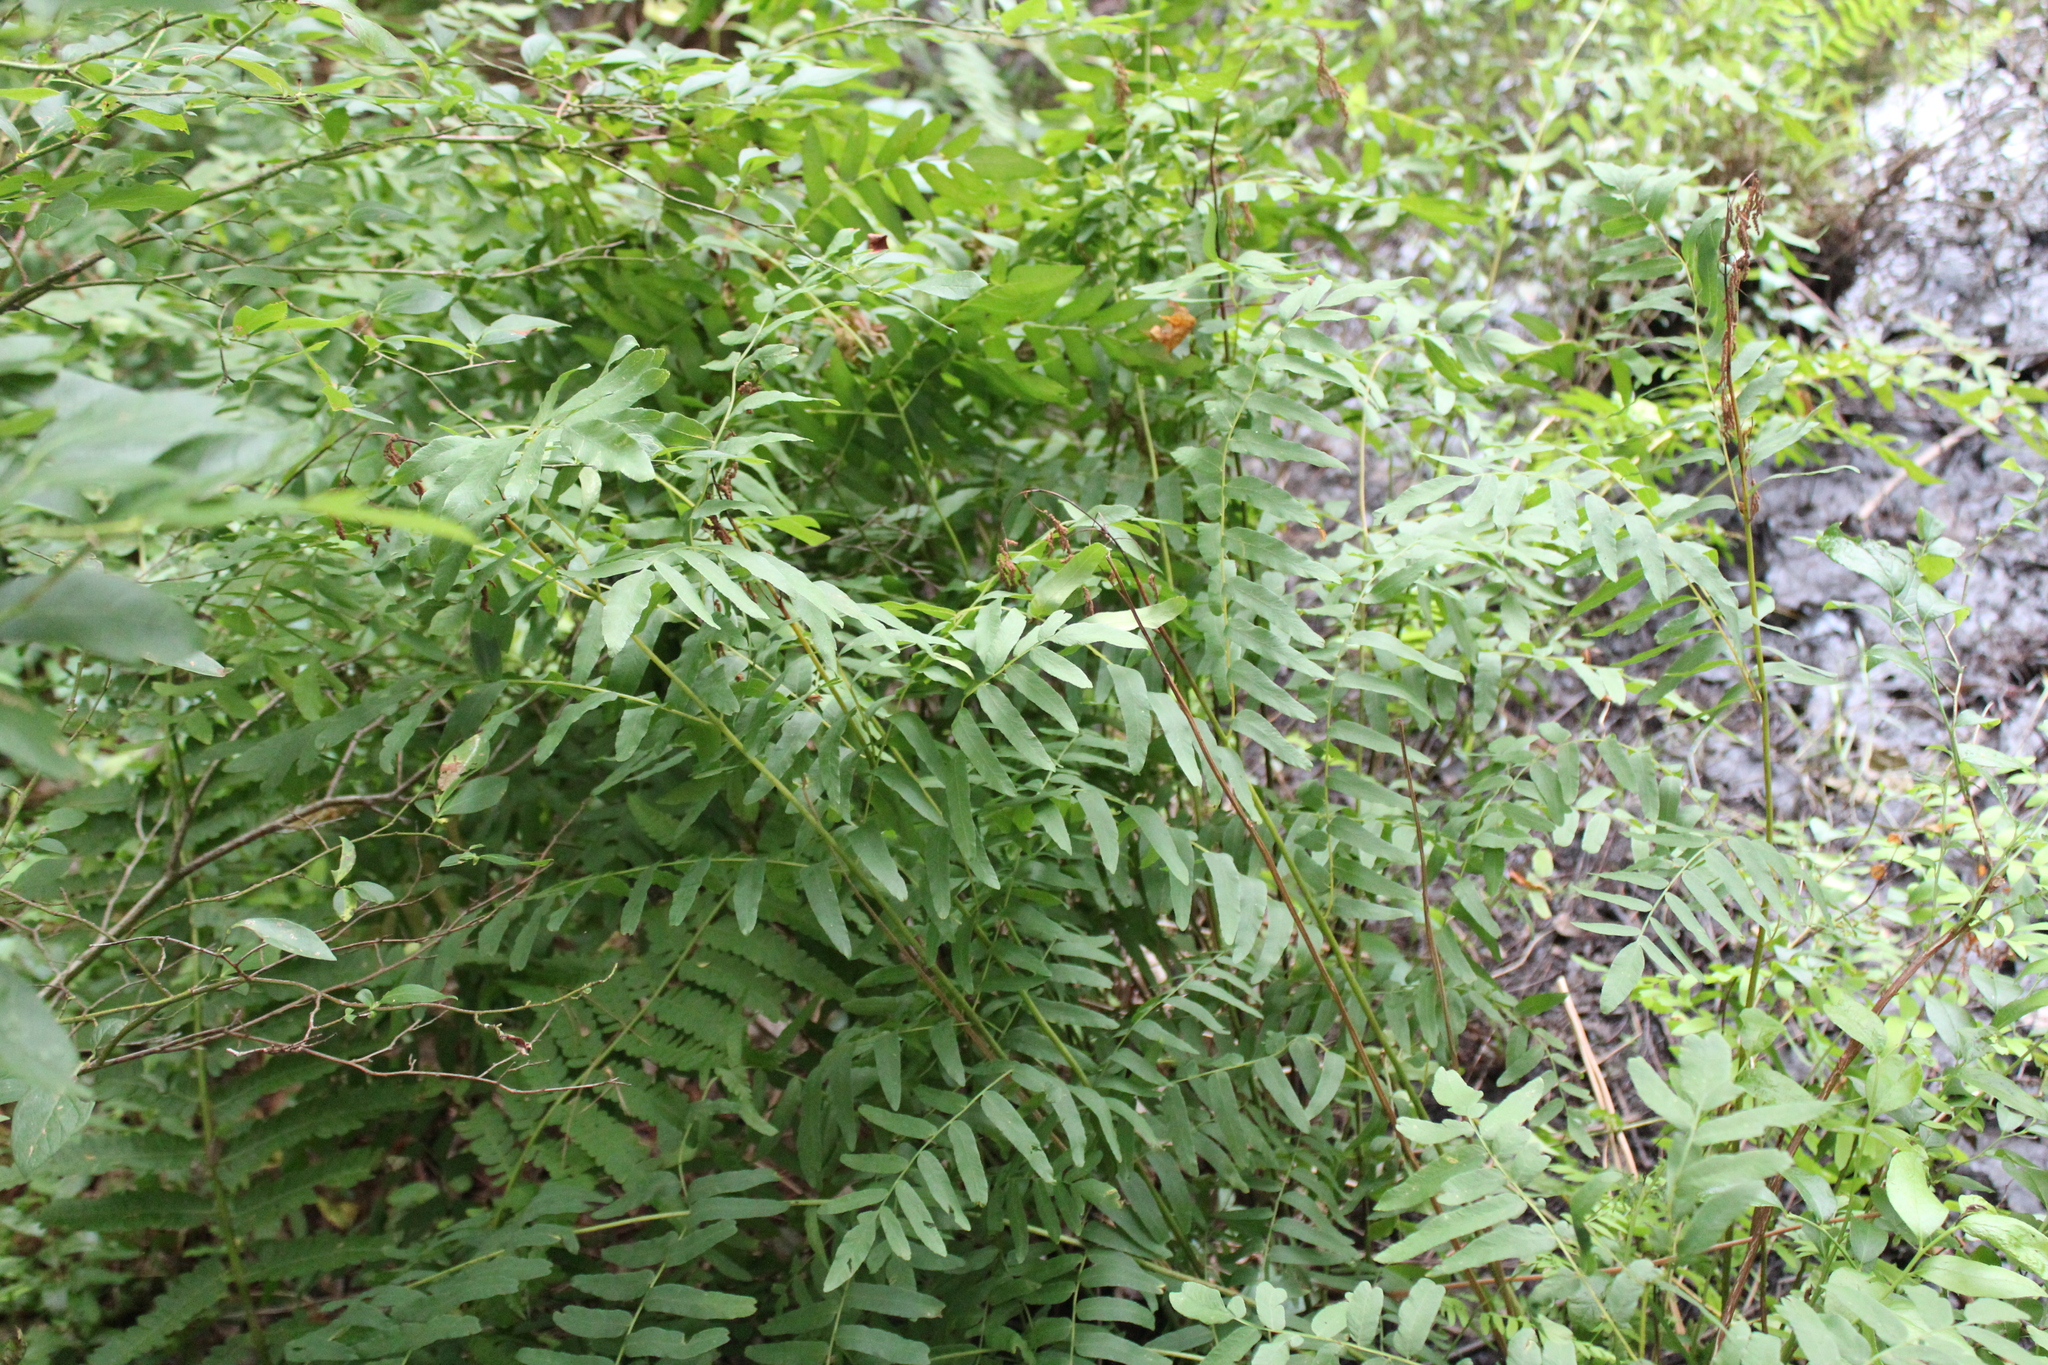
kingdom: Plantae
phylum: Tracheophyta
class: Polypodiopsida
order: Osmundales
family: Osmundaceae
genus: Osmunda
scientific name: Osmunda spectabilis
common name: American royal fern
